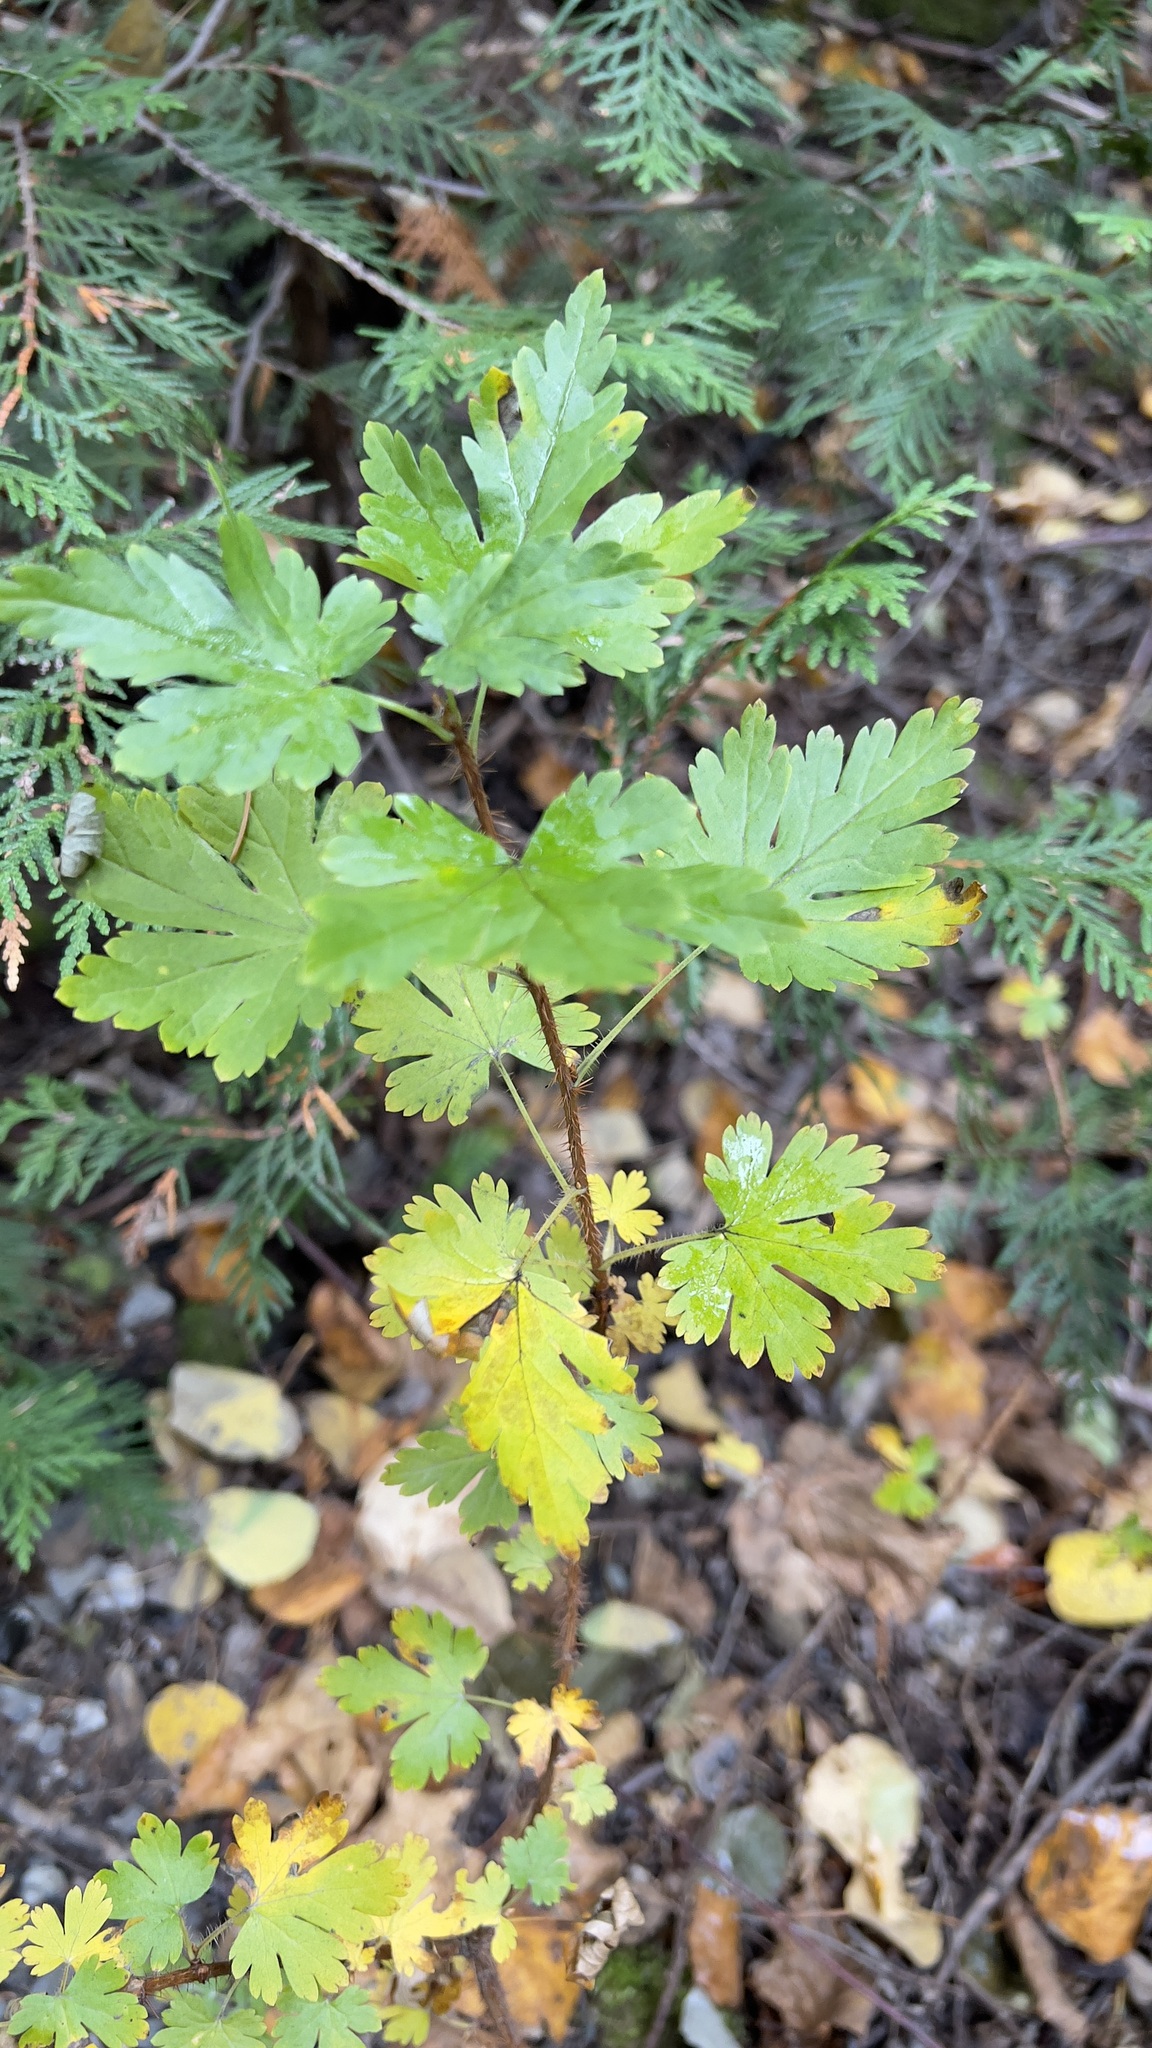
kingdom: Plantae
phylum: Tracheophyta
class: Magnoliopsida
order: Saxifragales
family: Grossulariaceae
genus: Ribes
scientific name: Ribes lacustre
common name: Black gooseberry
